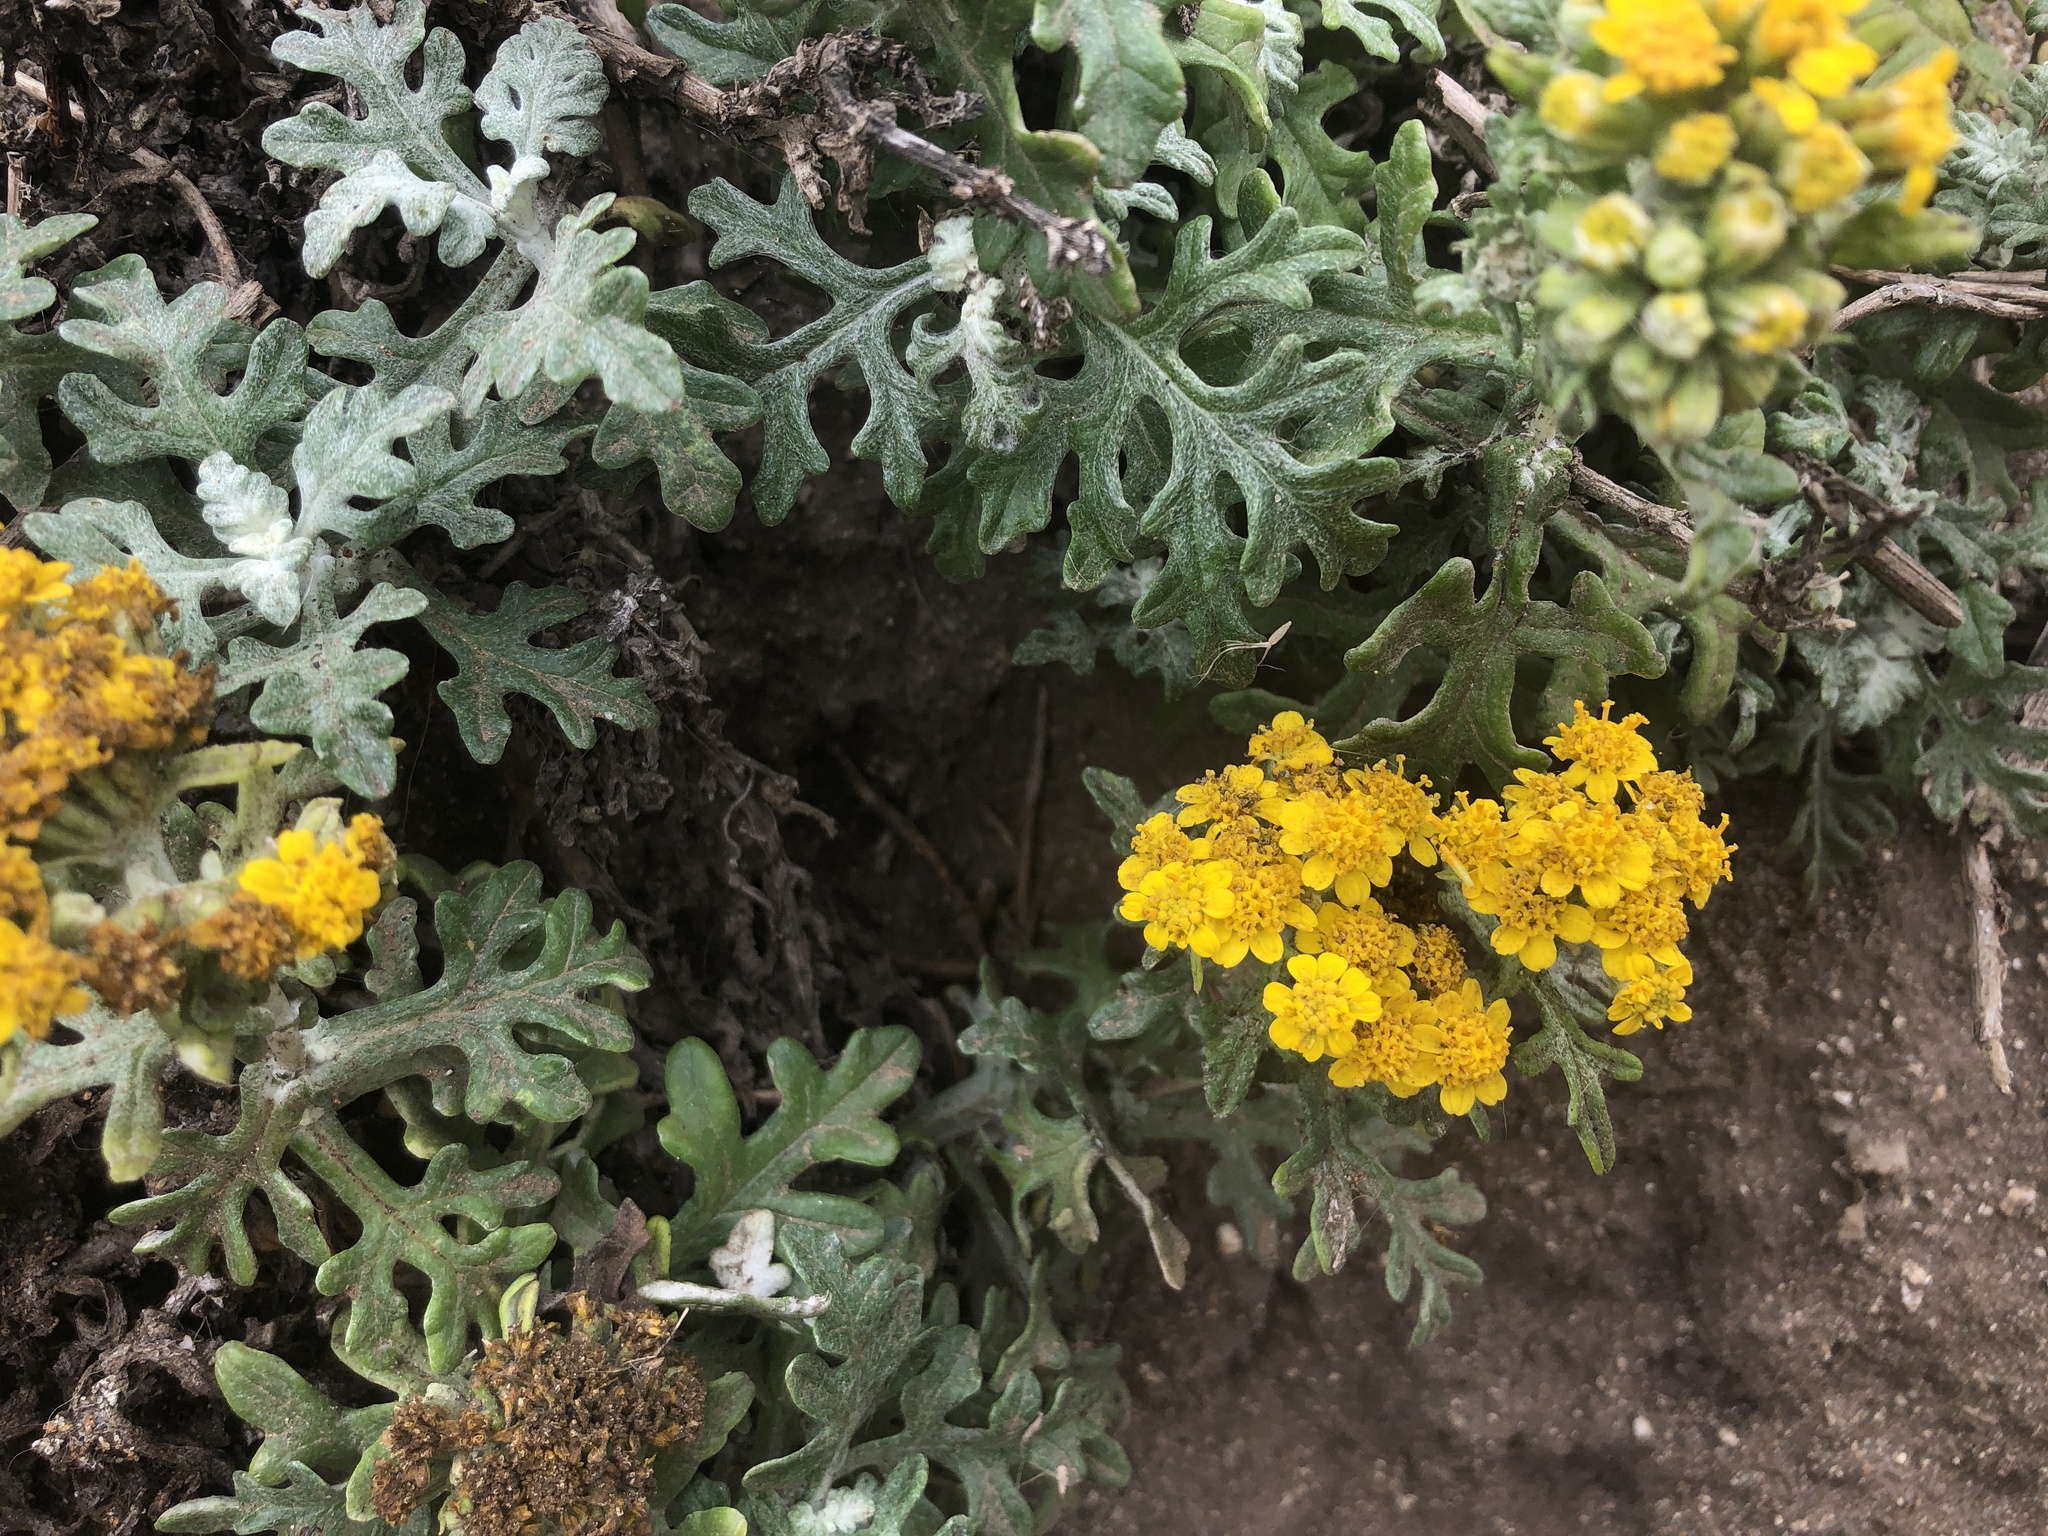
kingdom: Plantae
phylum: Tracheophyta
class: Magnoliopsida
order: Asterales
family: Asteraceae
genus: Eriophyllum
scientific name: Eriophyllum staechadifolium
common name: Lizardtail
